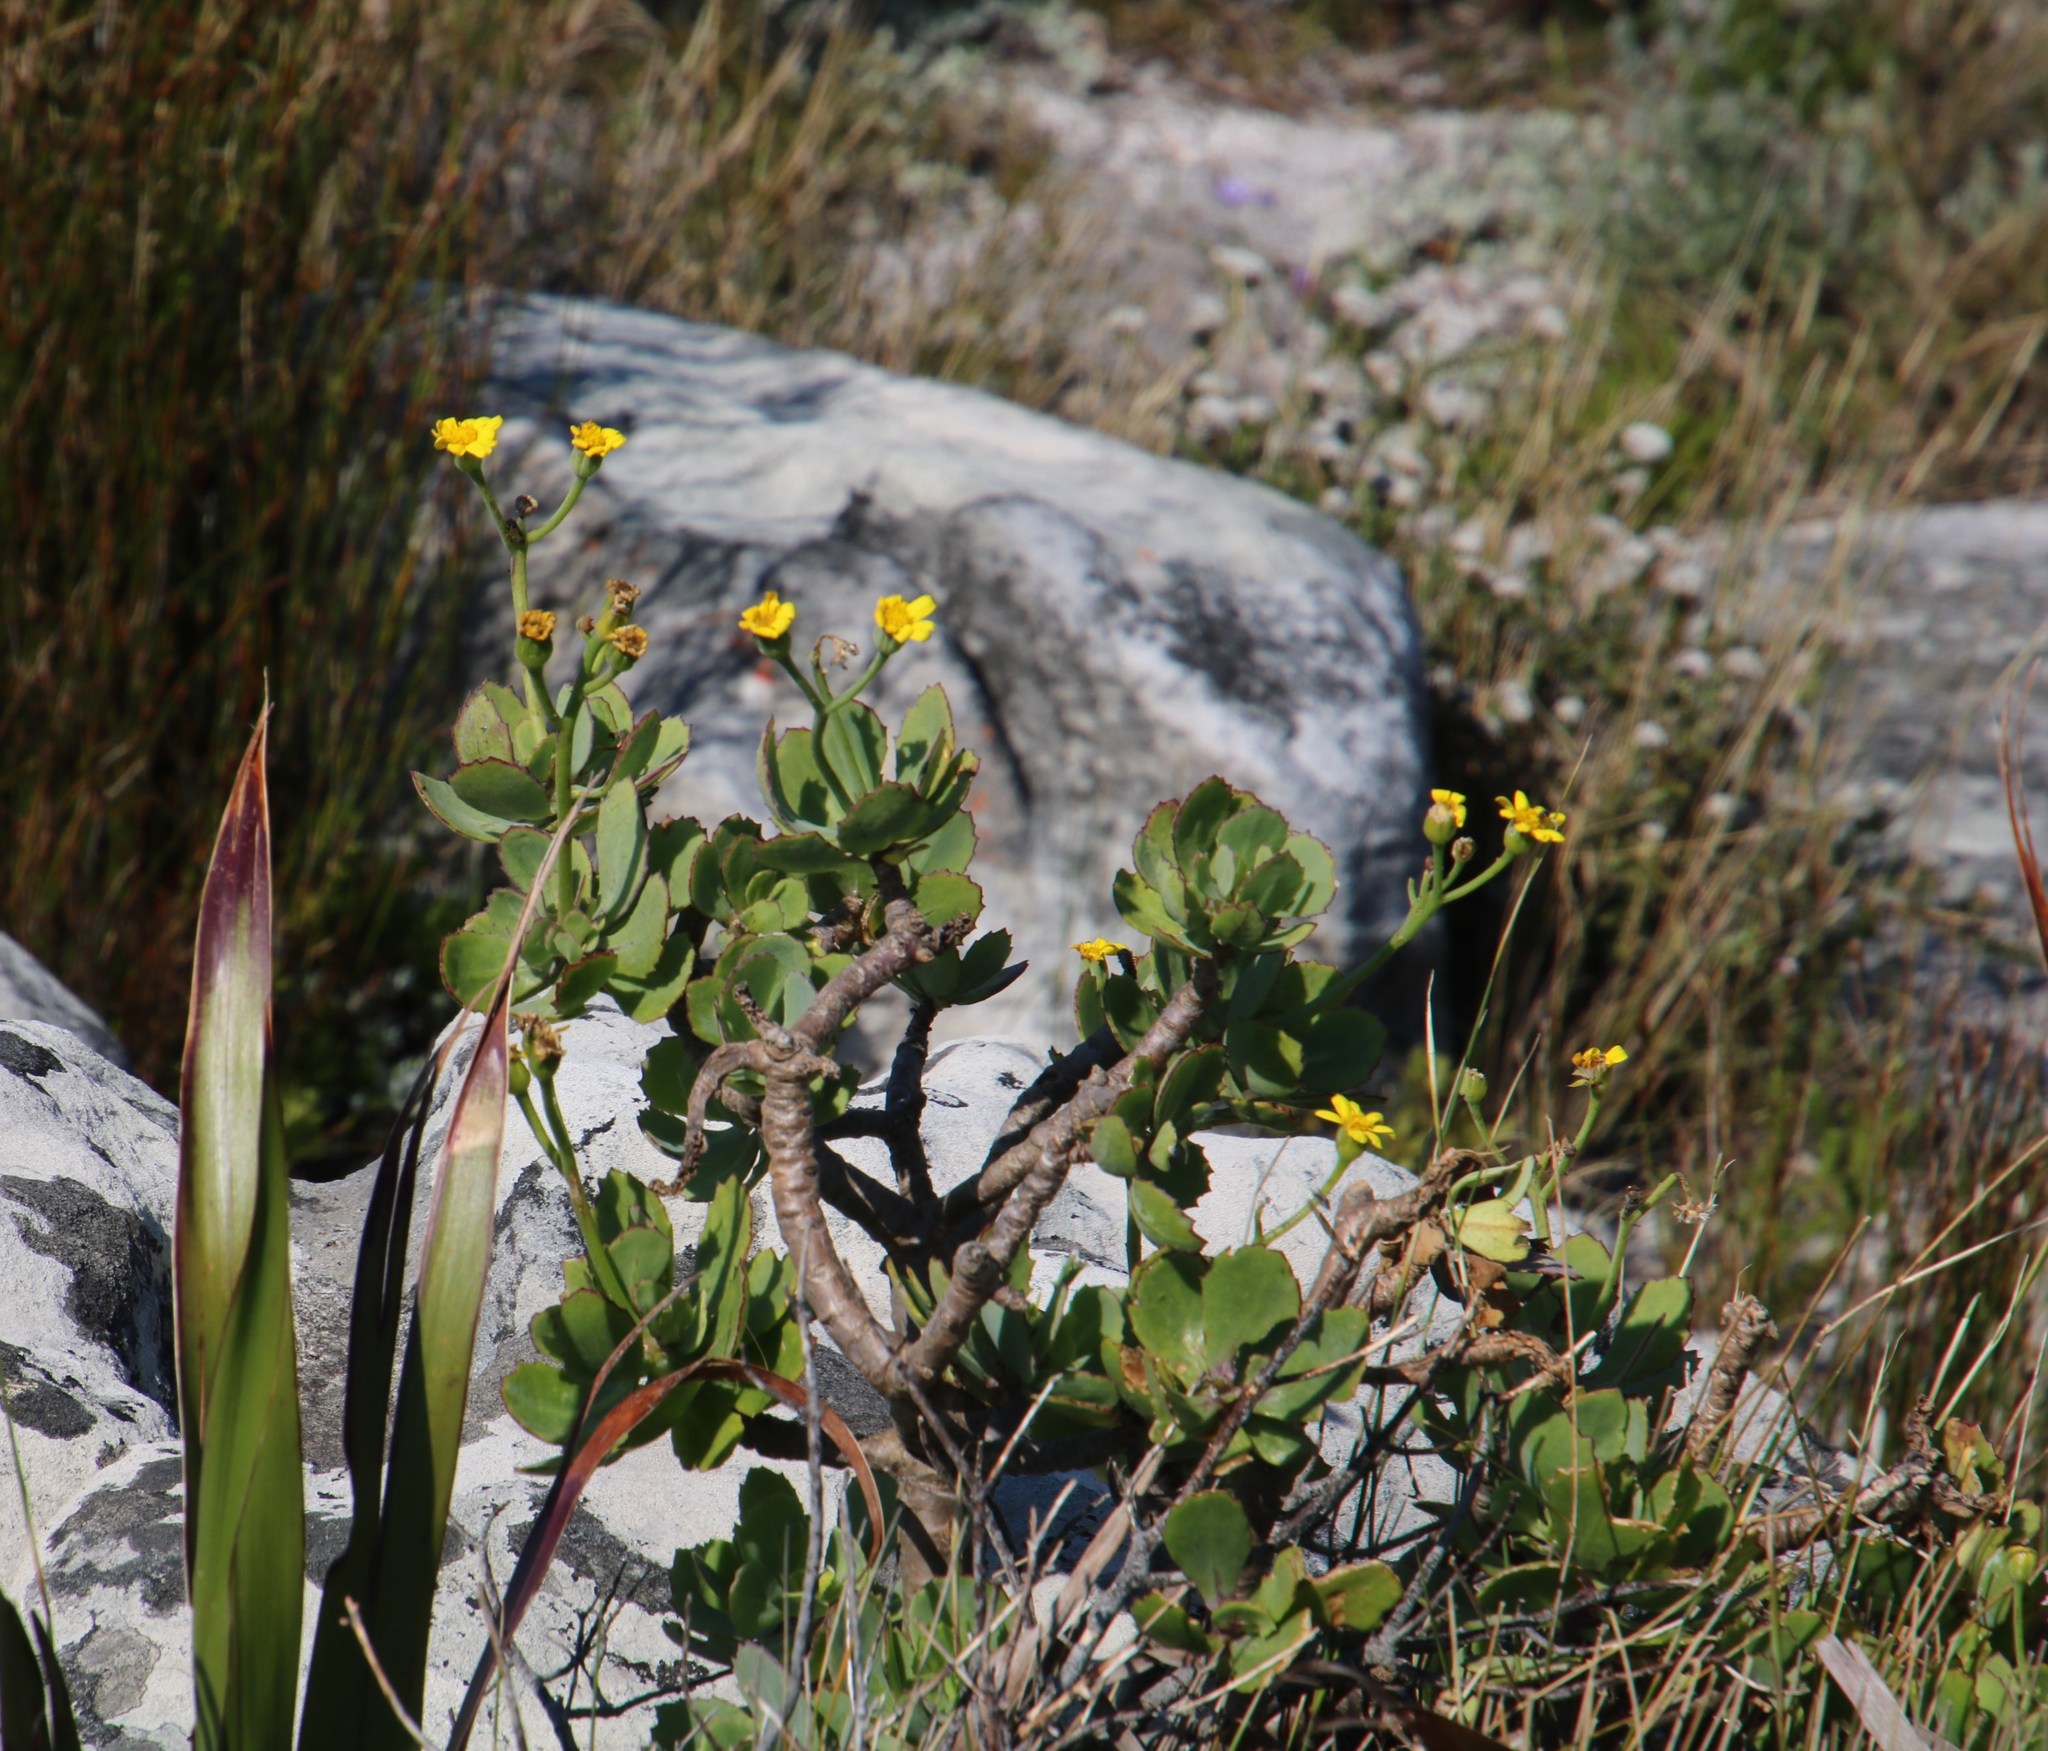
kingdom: Plantae
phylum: Tracheophyta
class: Magnoliopsida
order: Asterales
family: Asteraceae
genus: Othonna
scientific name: Othonna dentata
